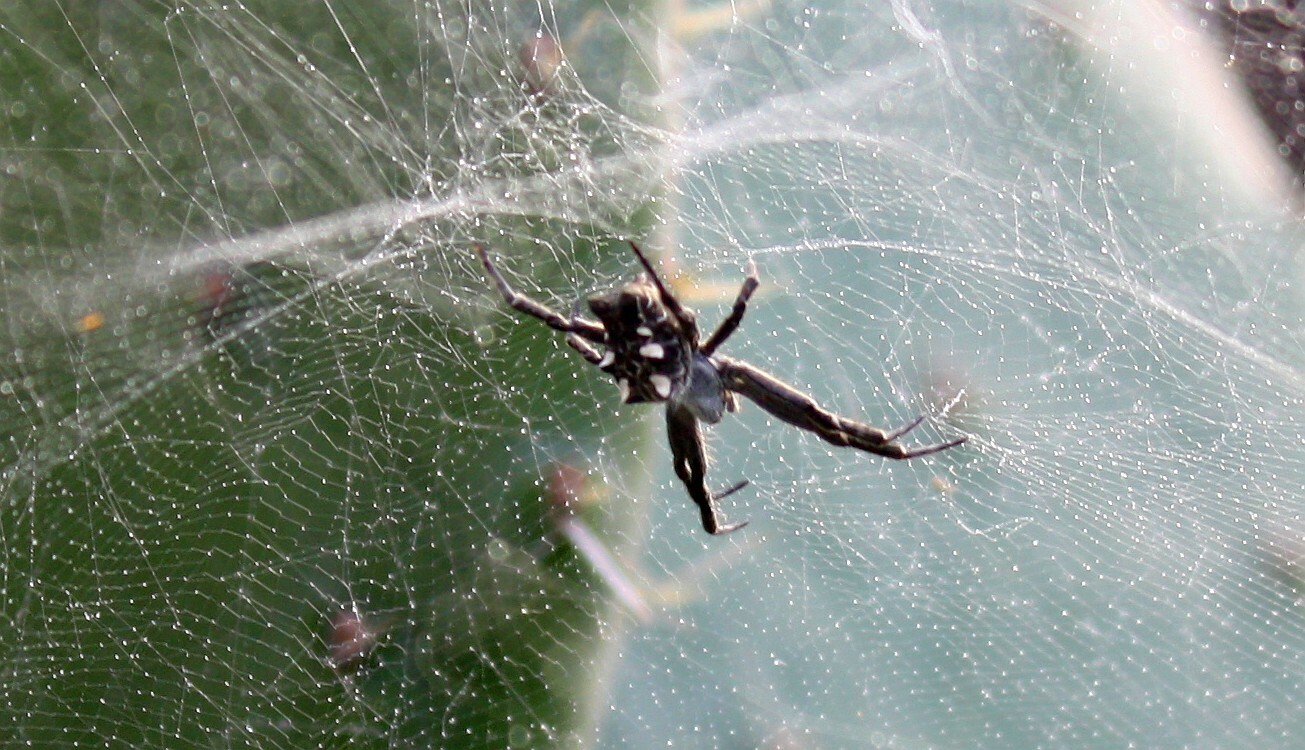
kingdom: Animalia
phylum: Arthropoda
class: Arachnida
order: Araneae
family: Araneidae
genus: Cyrtophora
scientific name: Cyrtophora citricola
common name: Orb weavers
